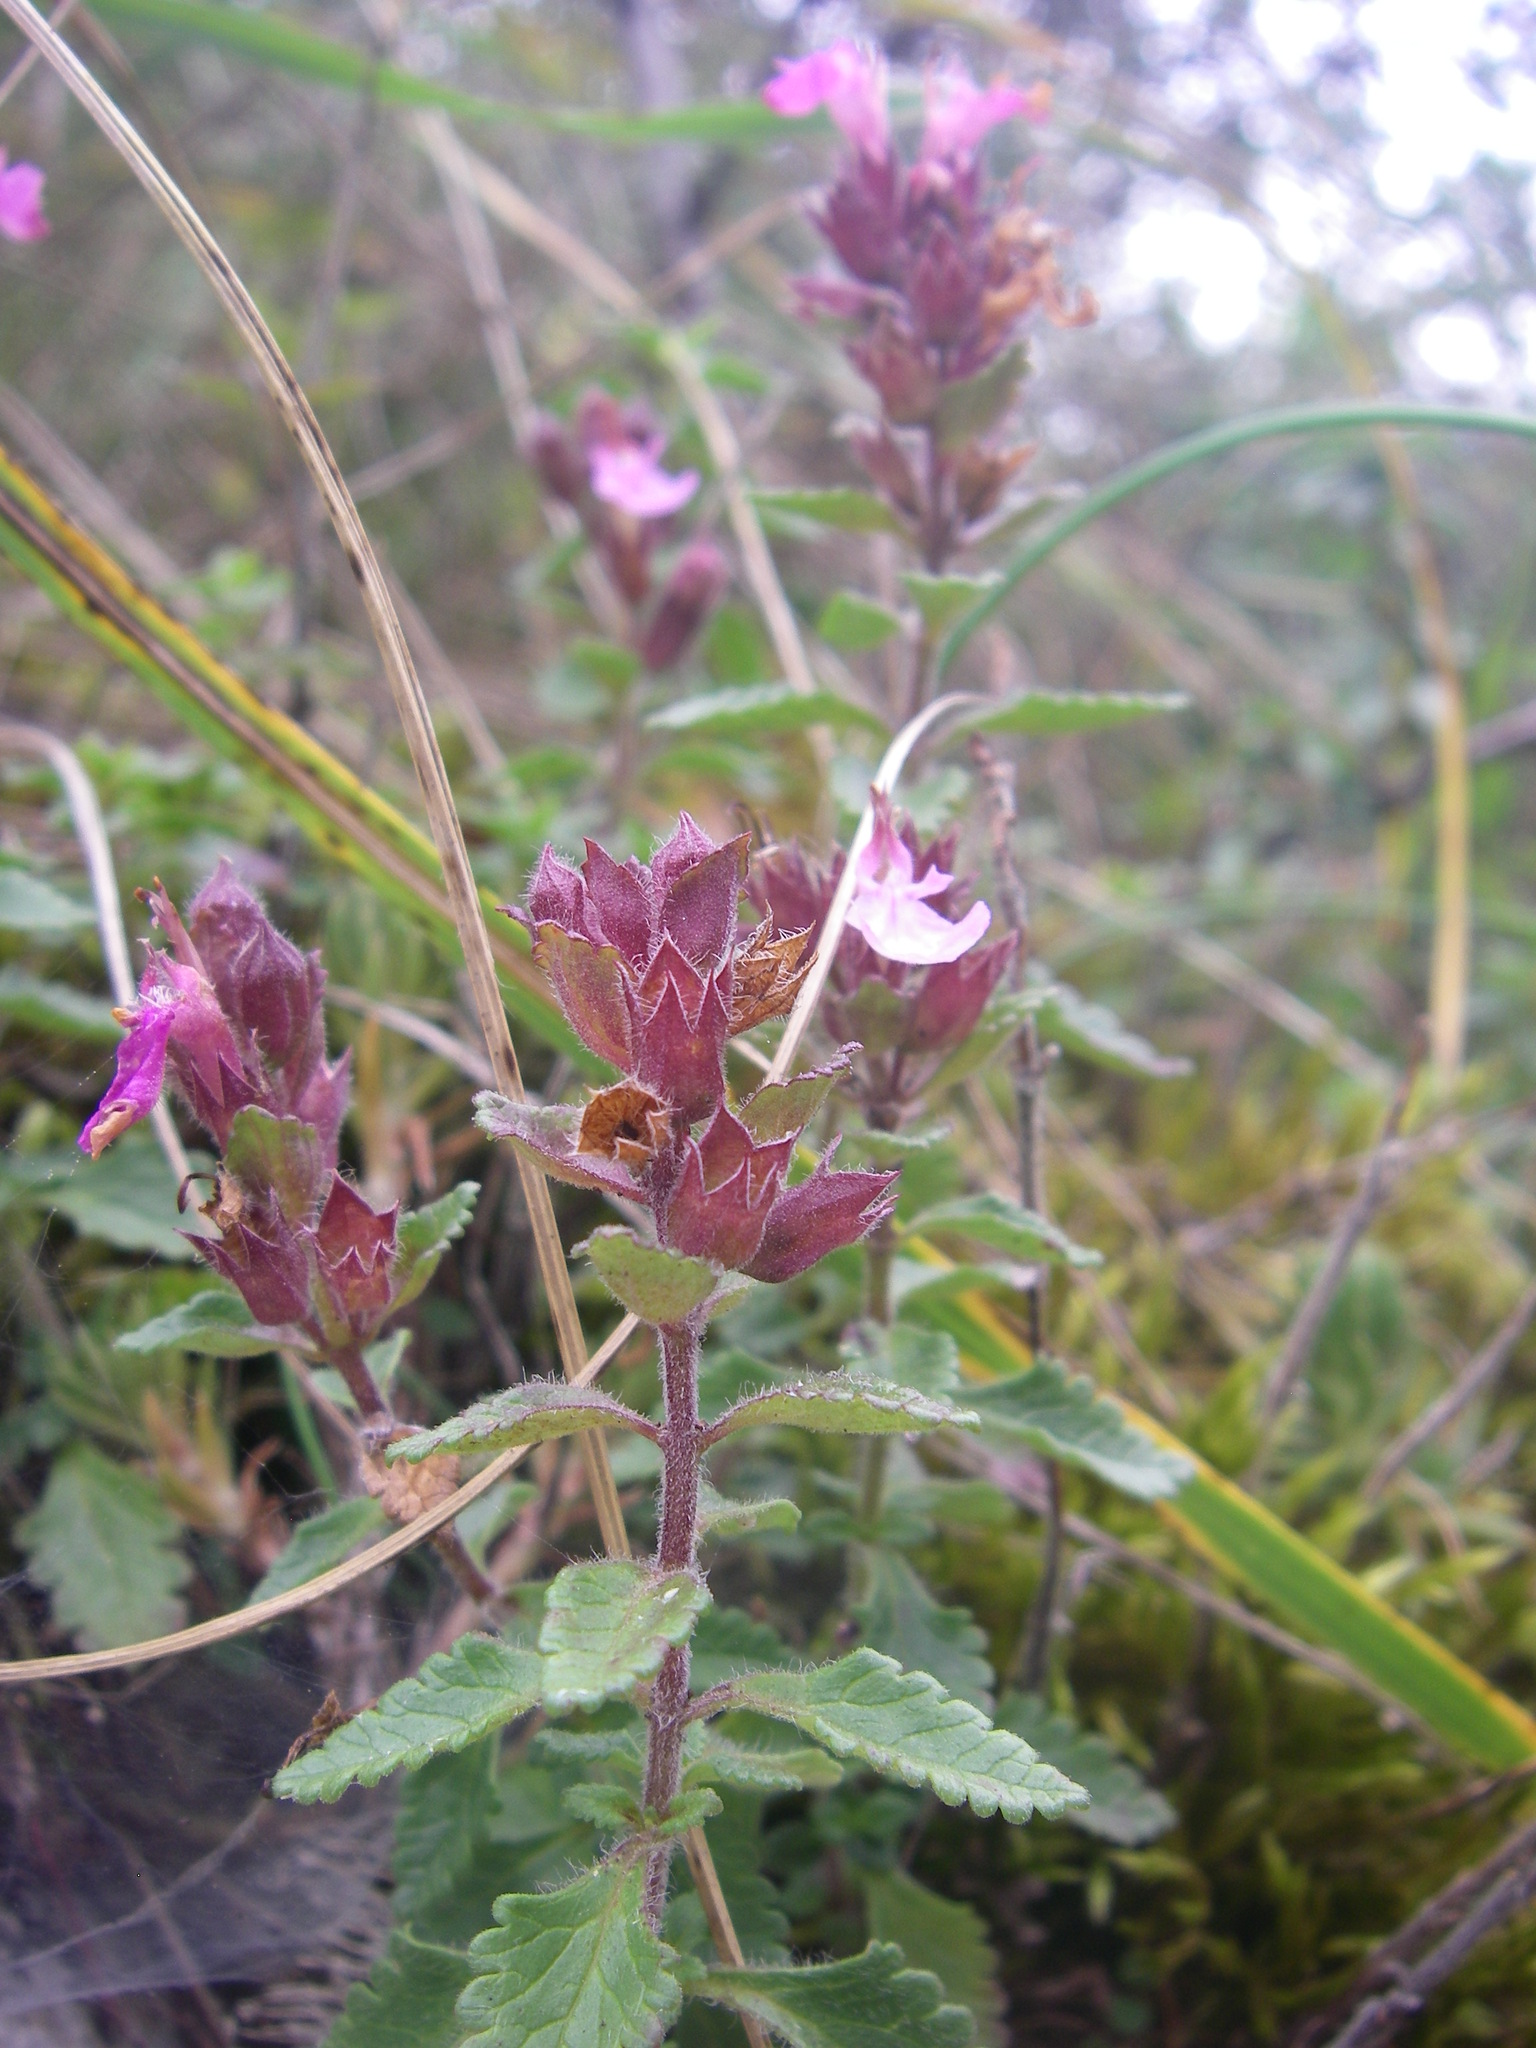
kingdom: Plantae
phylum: Tracheophyta
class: Magnoliopsida
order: Lamiales
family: Lamiaceae
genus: Teucrium
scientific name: Teucrium chamaedrys
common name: Wall germander
